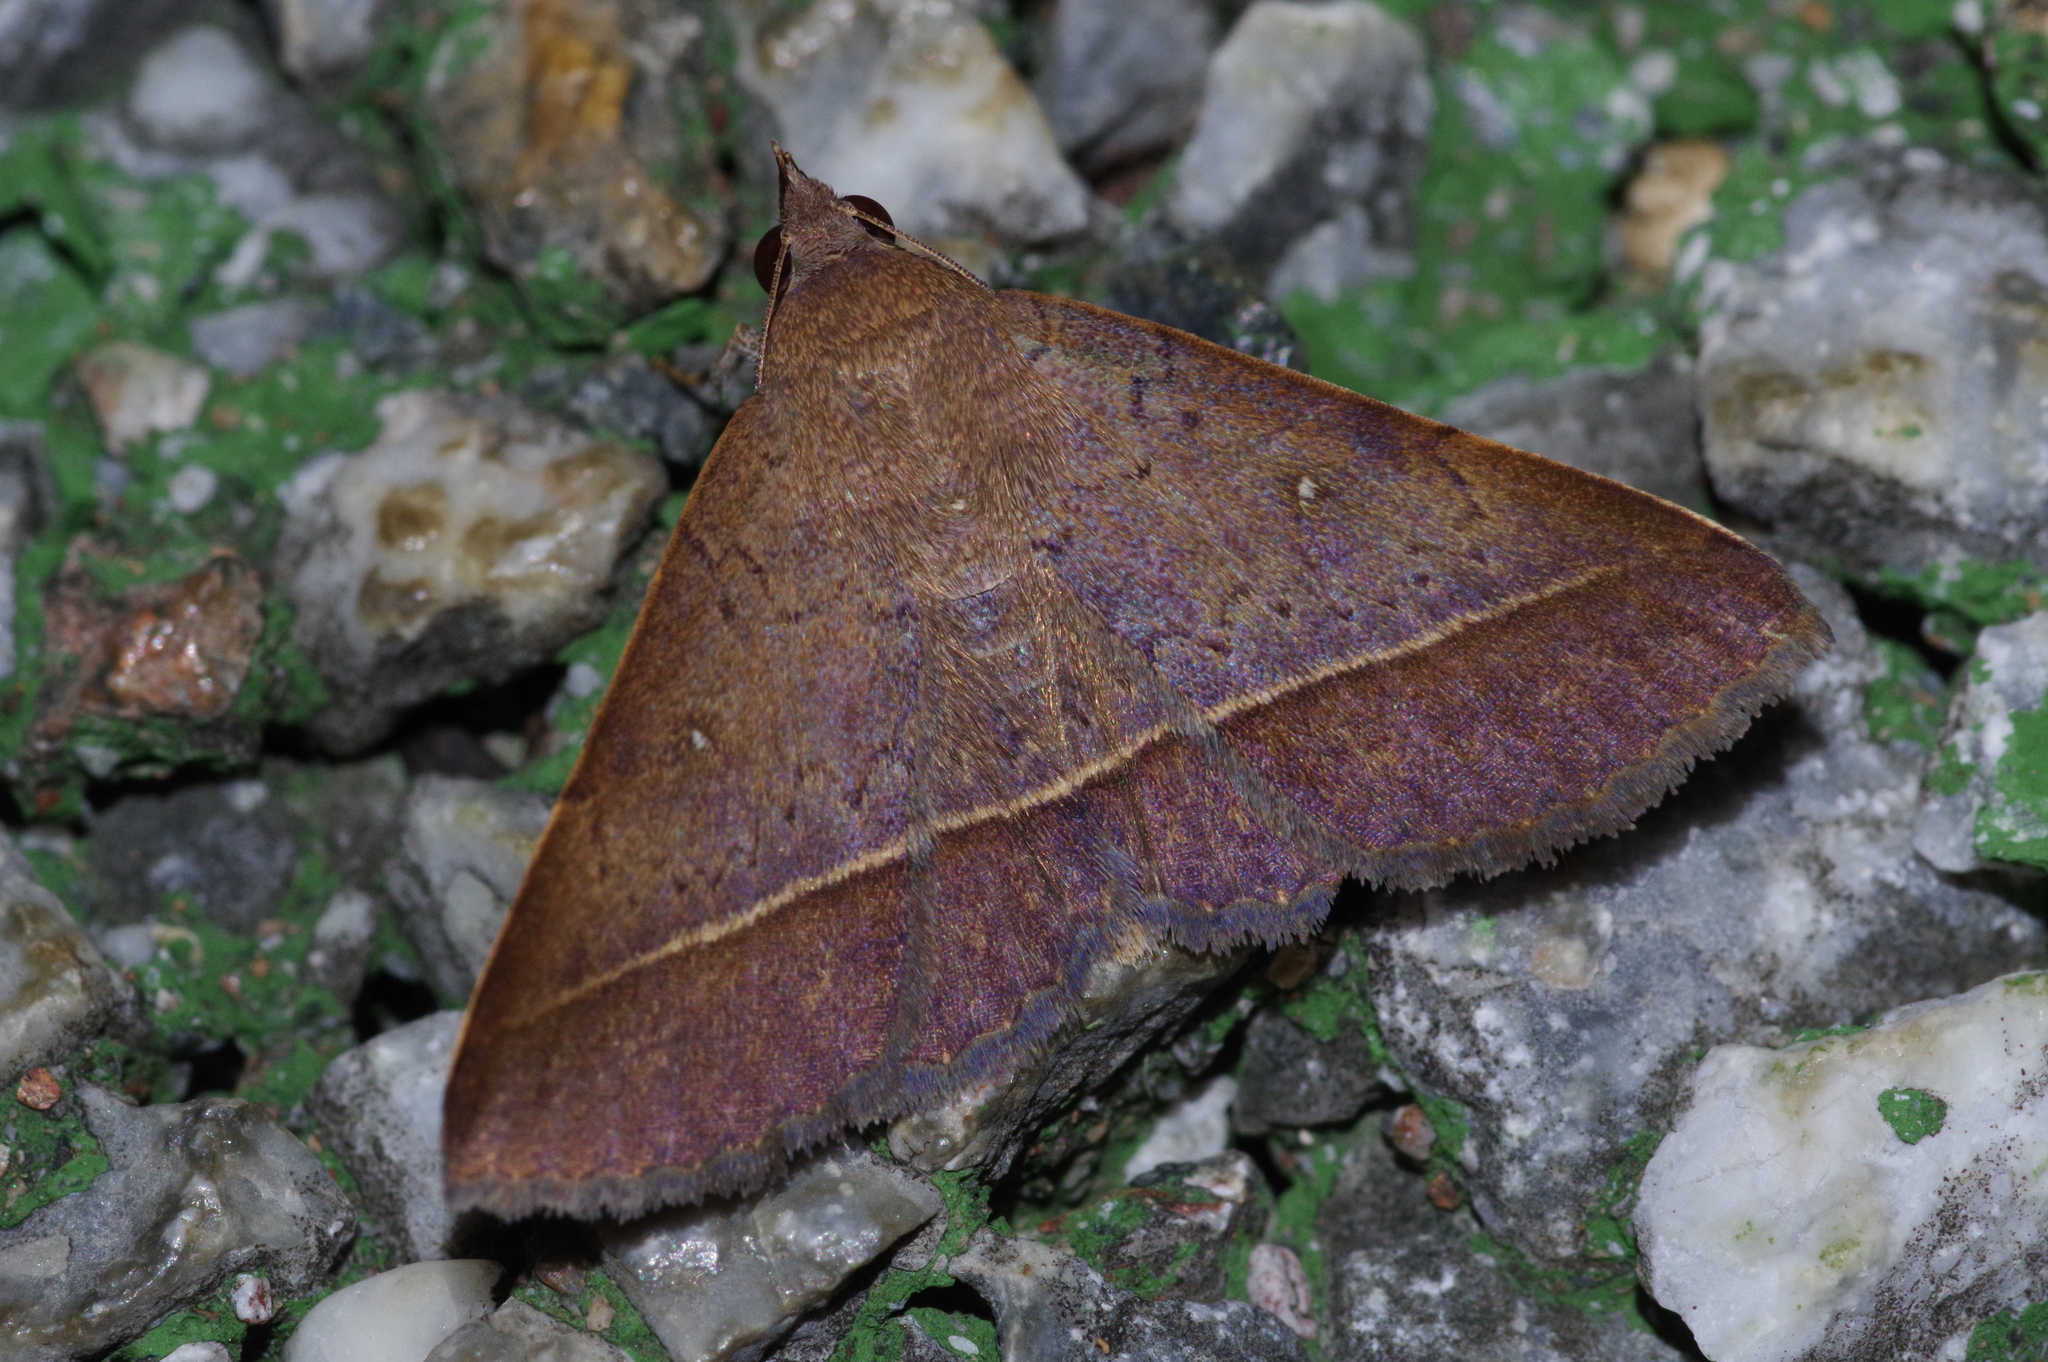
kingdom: Animalia
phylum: Arthropoda
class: Insecta
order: Lepidoptera
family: Erebidae
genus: Hypospila
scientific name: Hypospila bolinoides
